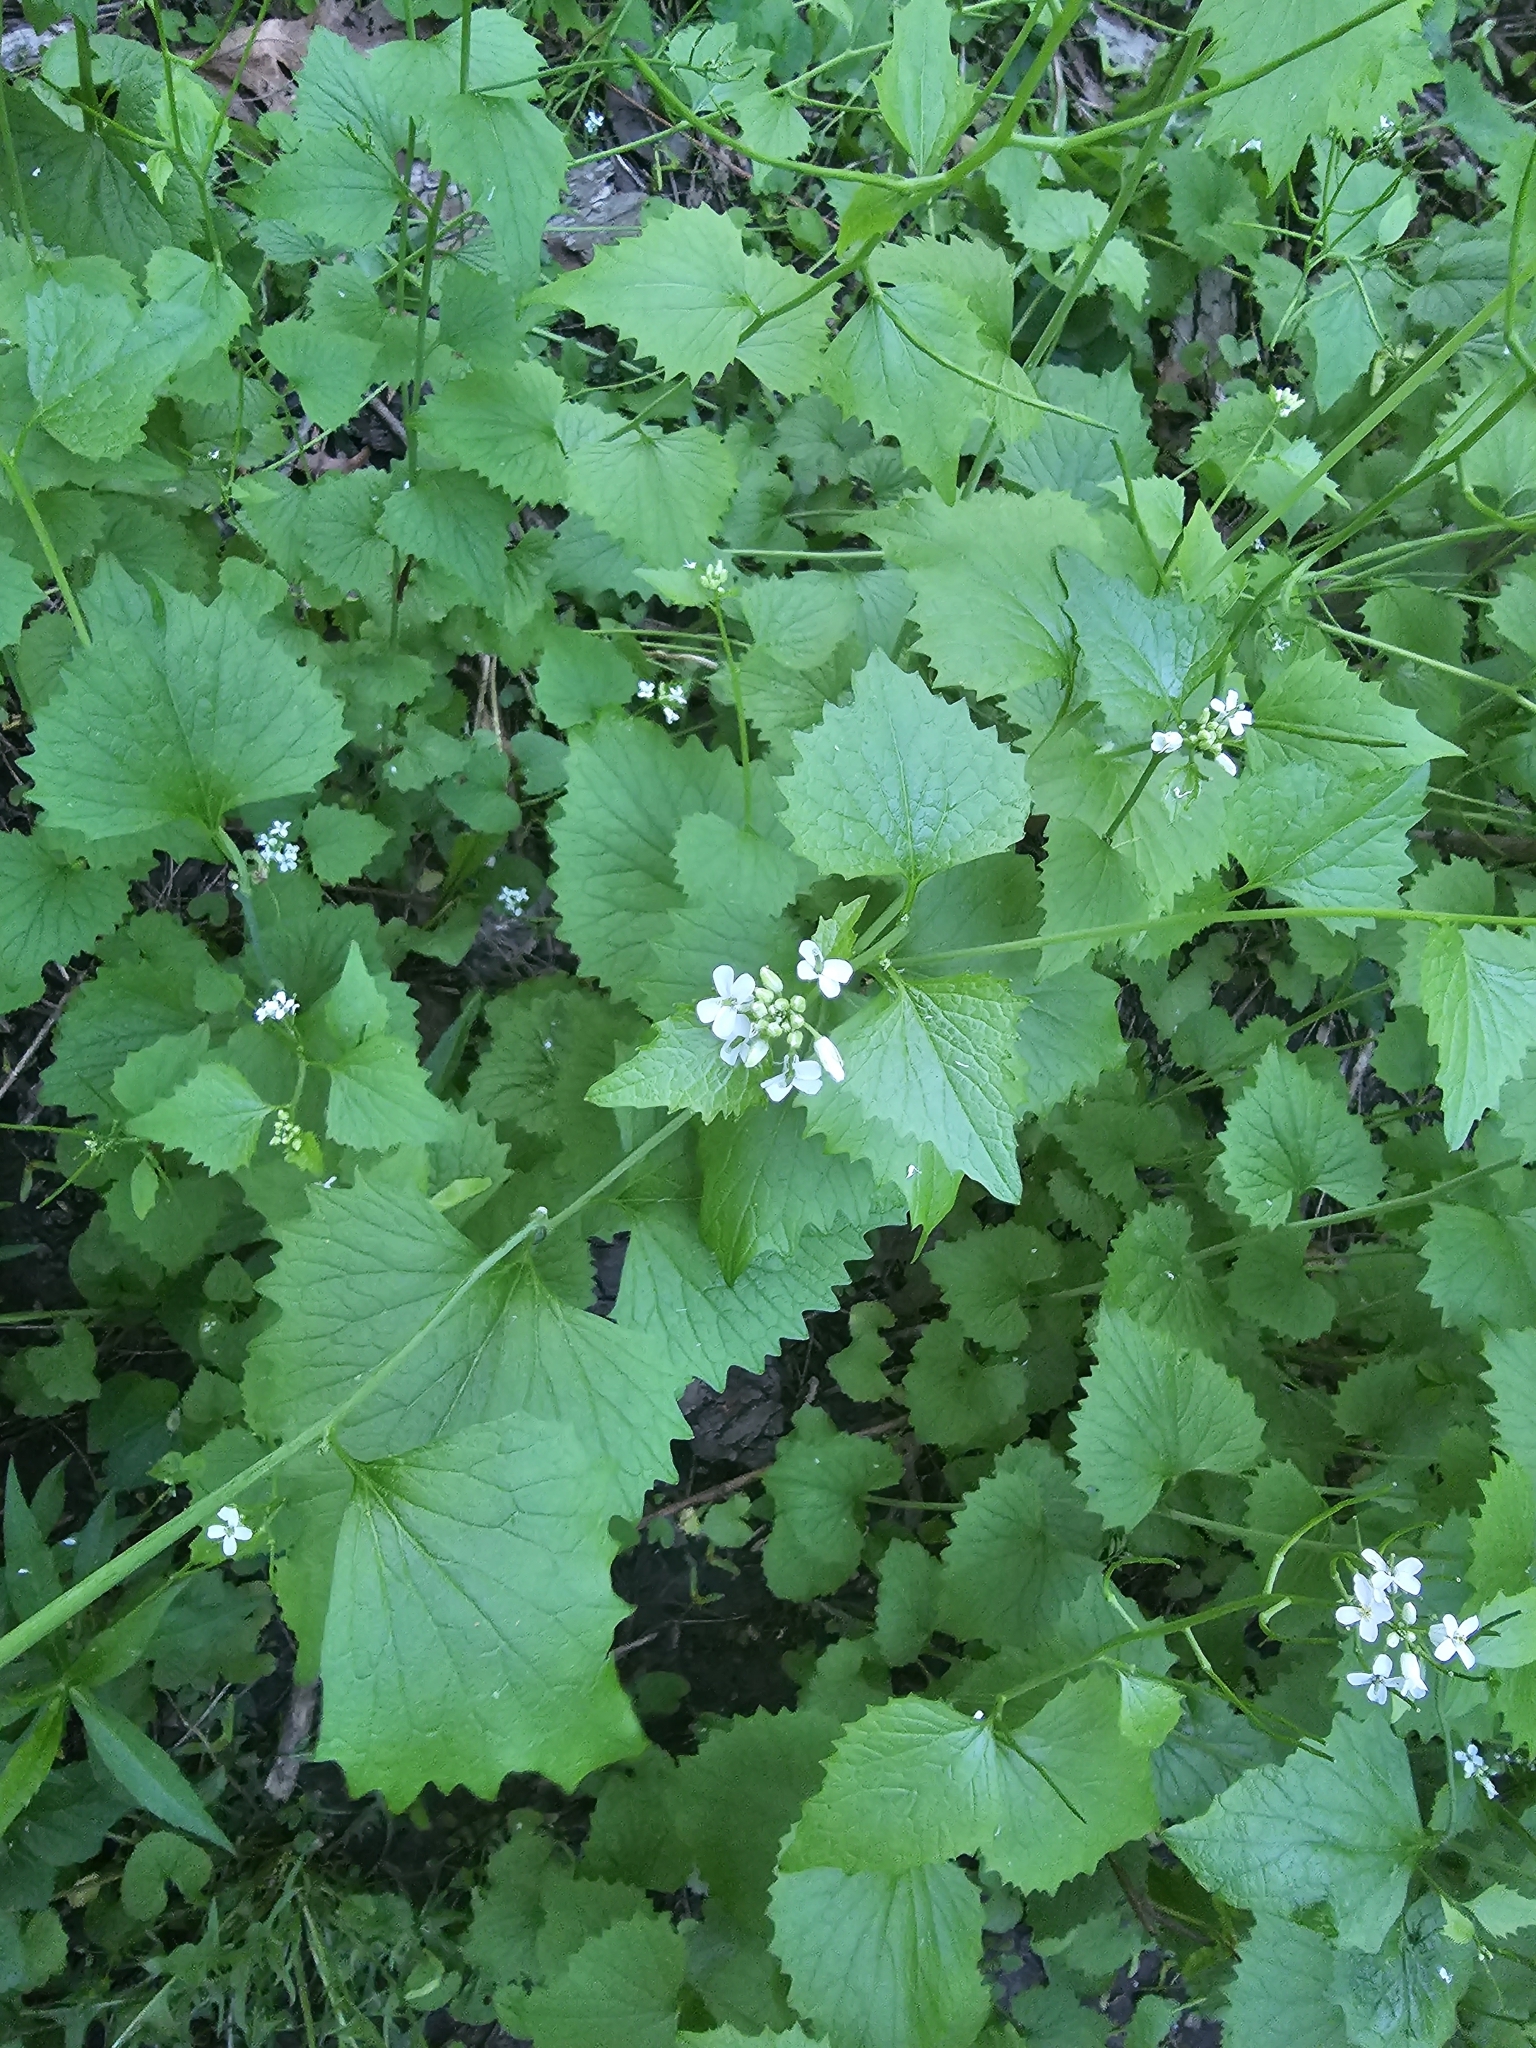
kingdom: Plantae
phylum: Tracheophyta
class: Magnoliopsida
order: Brassicales
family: Brassicaceae
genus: Alliaria
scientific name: Alliaria petiolata
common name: Garlic mustard
